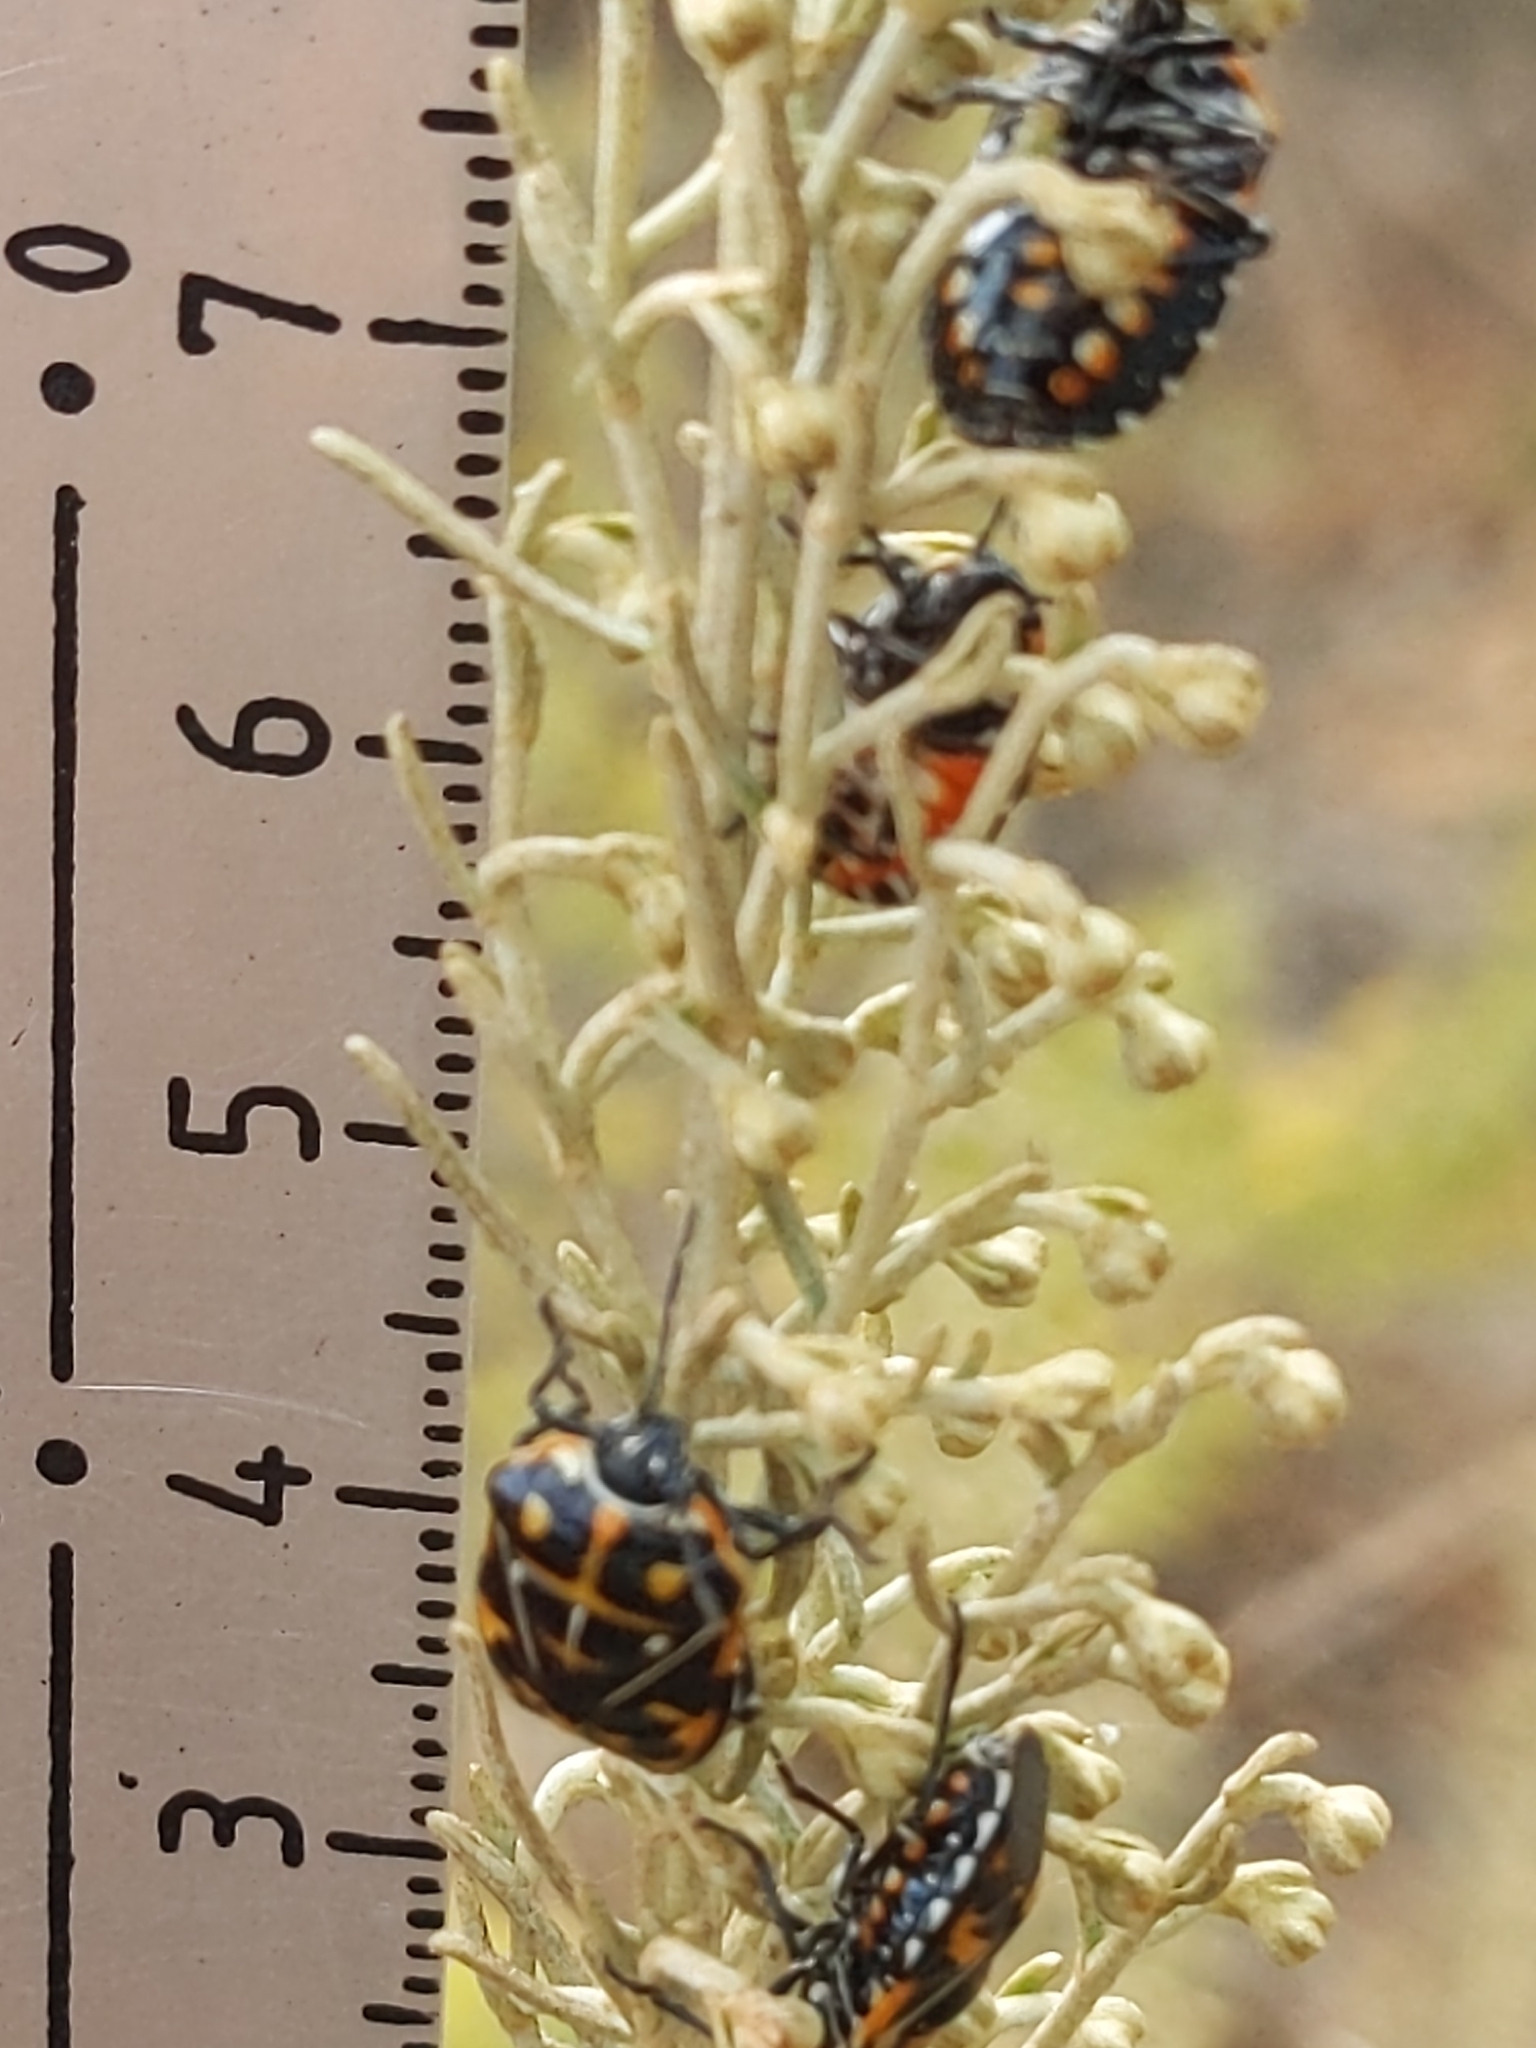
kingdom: Animalia
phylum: Arthropoda
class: Insecta
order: Hemiptera
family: Pentatomidae
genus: Murgantia
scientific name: Murgantia histrionica
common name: Harlequin bug
